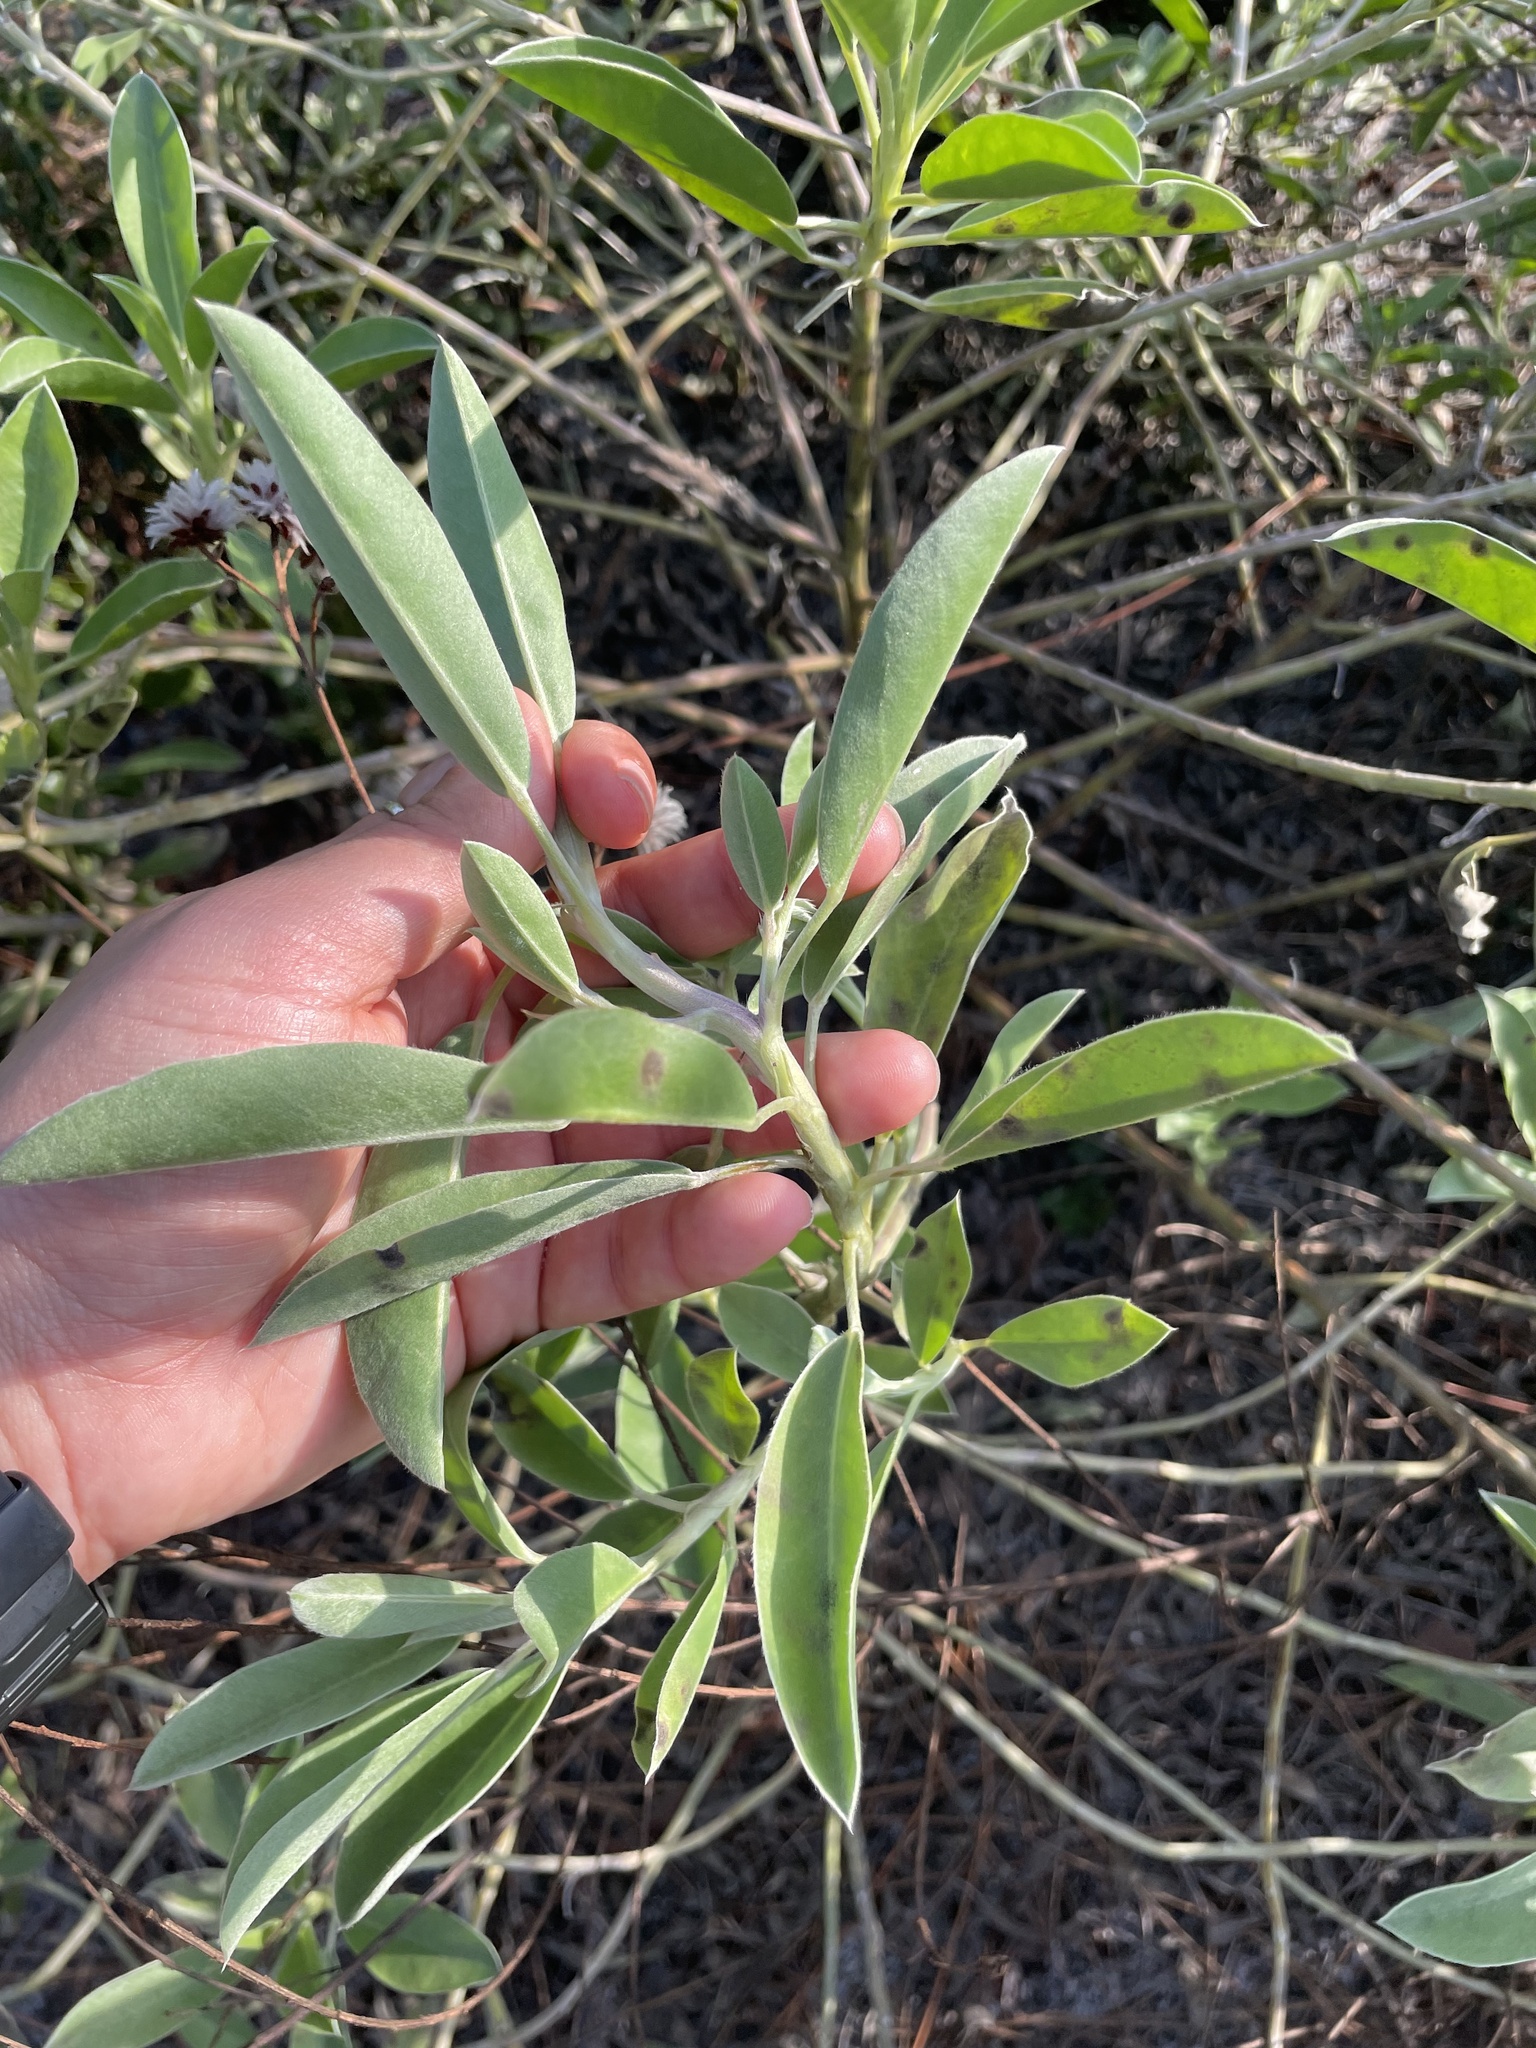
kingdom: Plantae
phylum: Tracheophyta
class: Magnoliopsida
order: Fabales
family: Fabaceae
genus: Lupinus
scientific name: Lupinus
